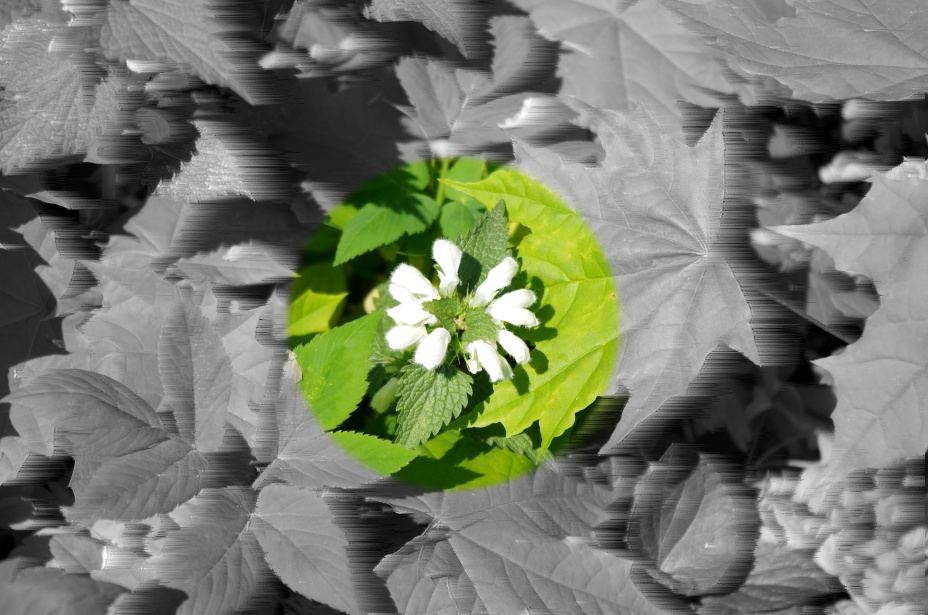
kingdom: Plantae
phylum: Tracheophyta
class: Magnoliopsida
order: Lamiales
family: Lamiaceae
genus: Lamium
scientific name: Lamium album
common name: White dead-nettle
